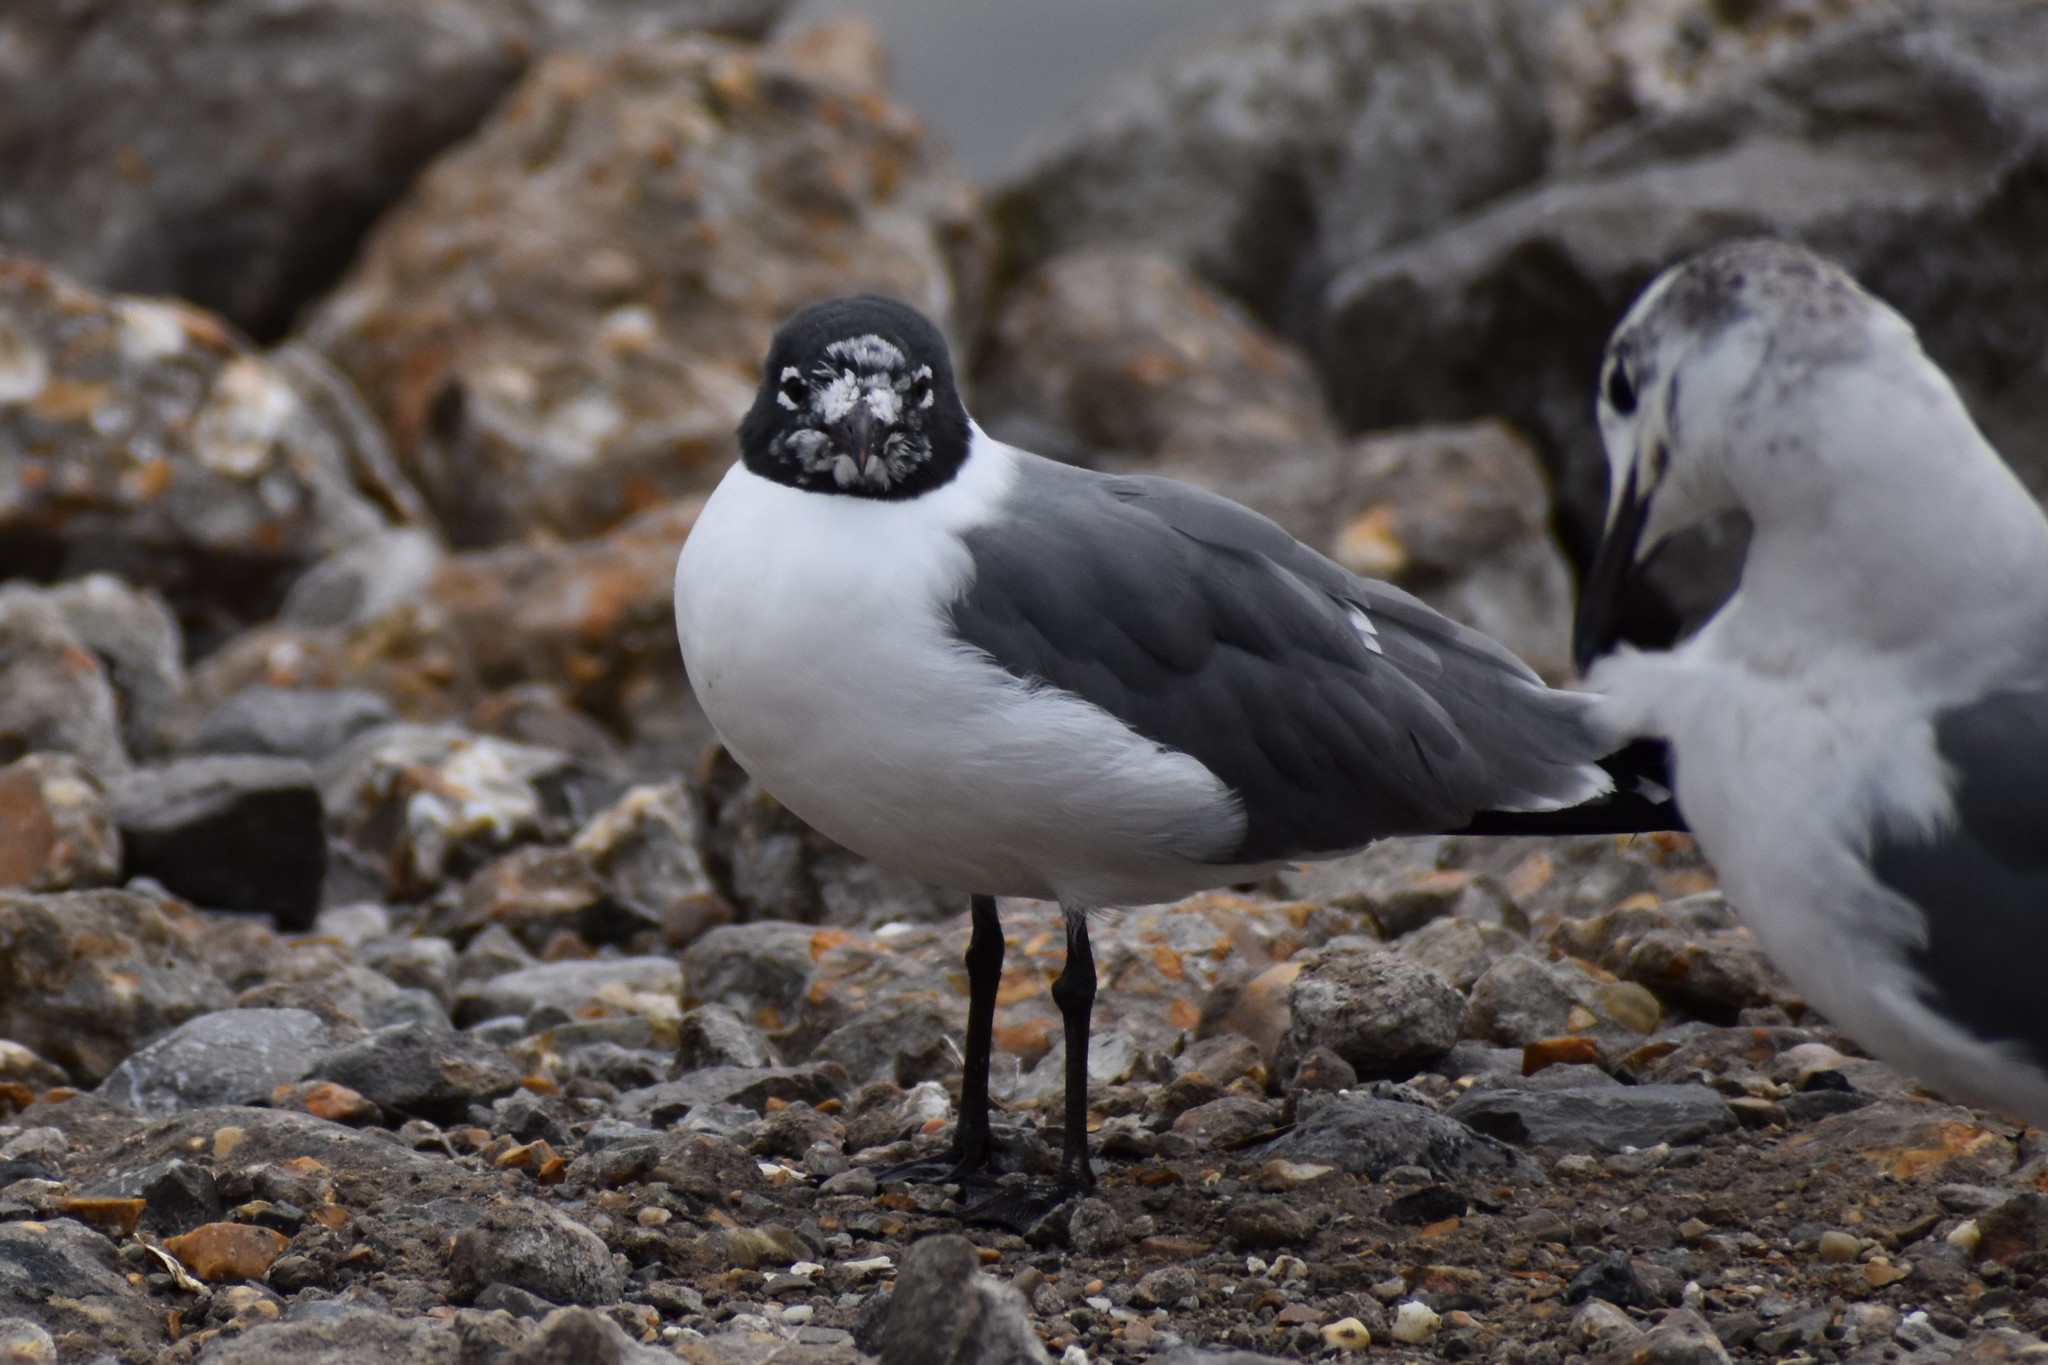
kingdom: Animalia
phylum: Chordata
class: Aves
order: Charadriiformes
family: Laridae
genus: Leucophaeus
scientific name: Leucophaeus atricilla
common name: Laughing gull
